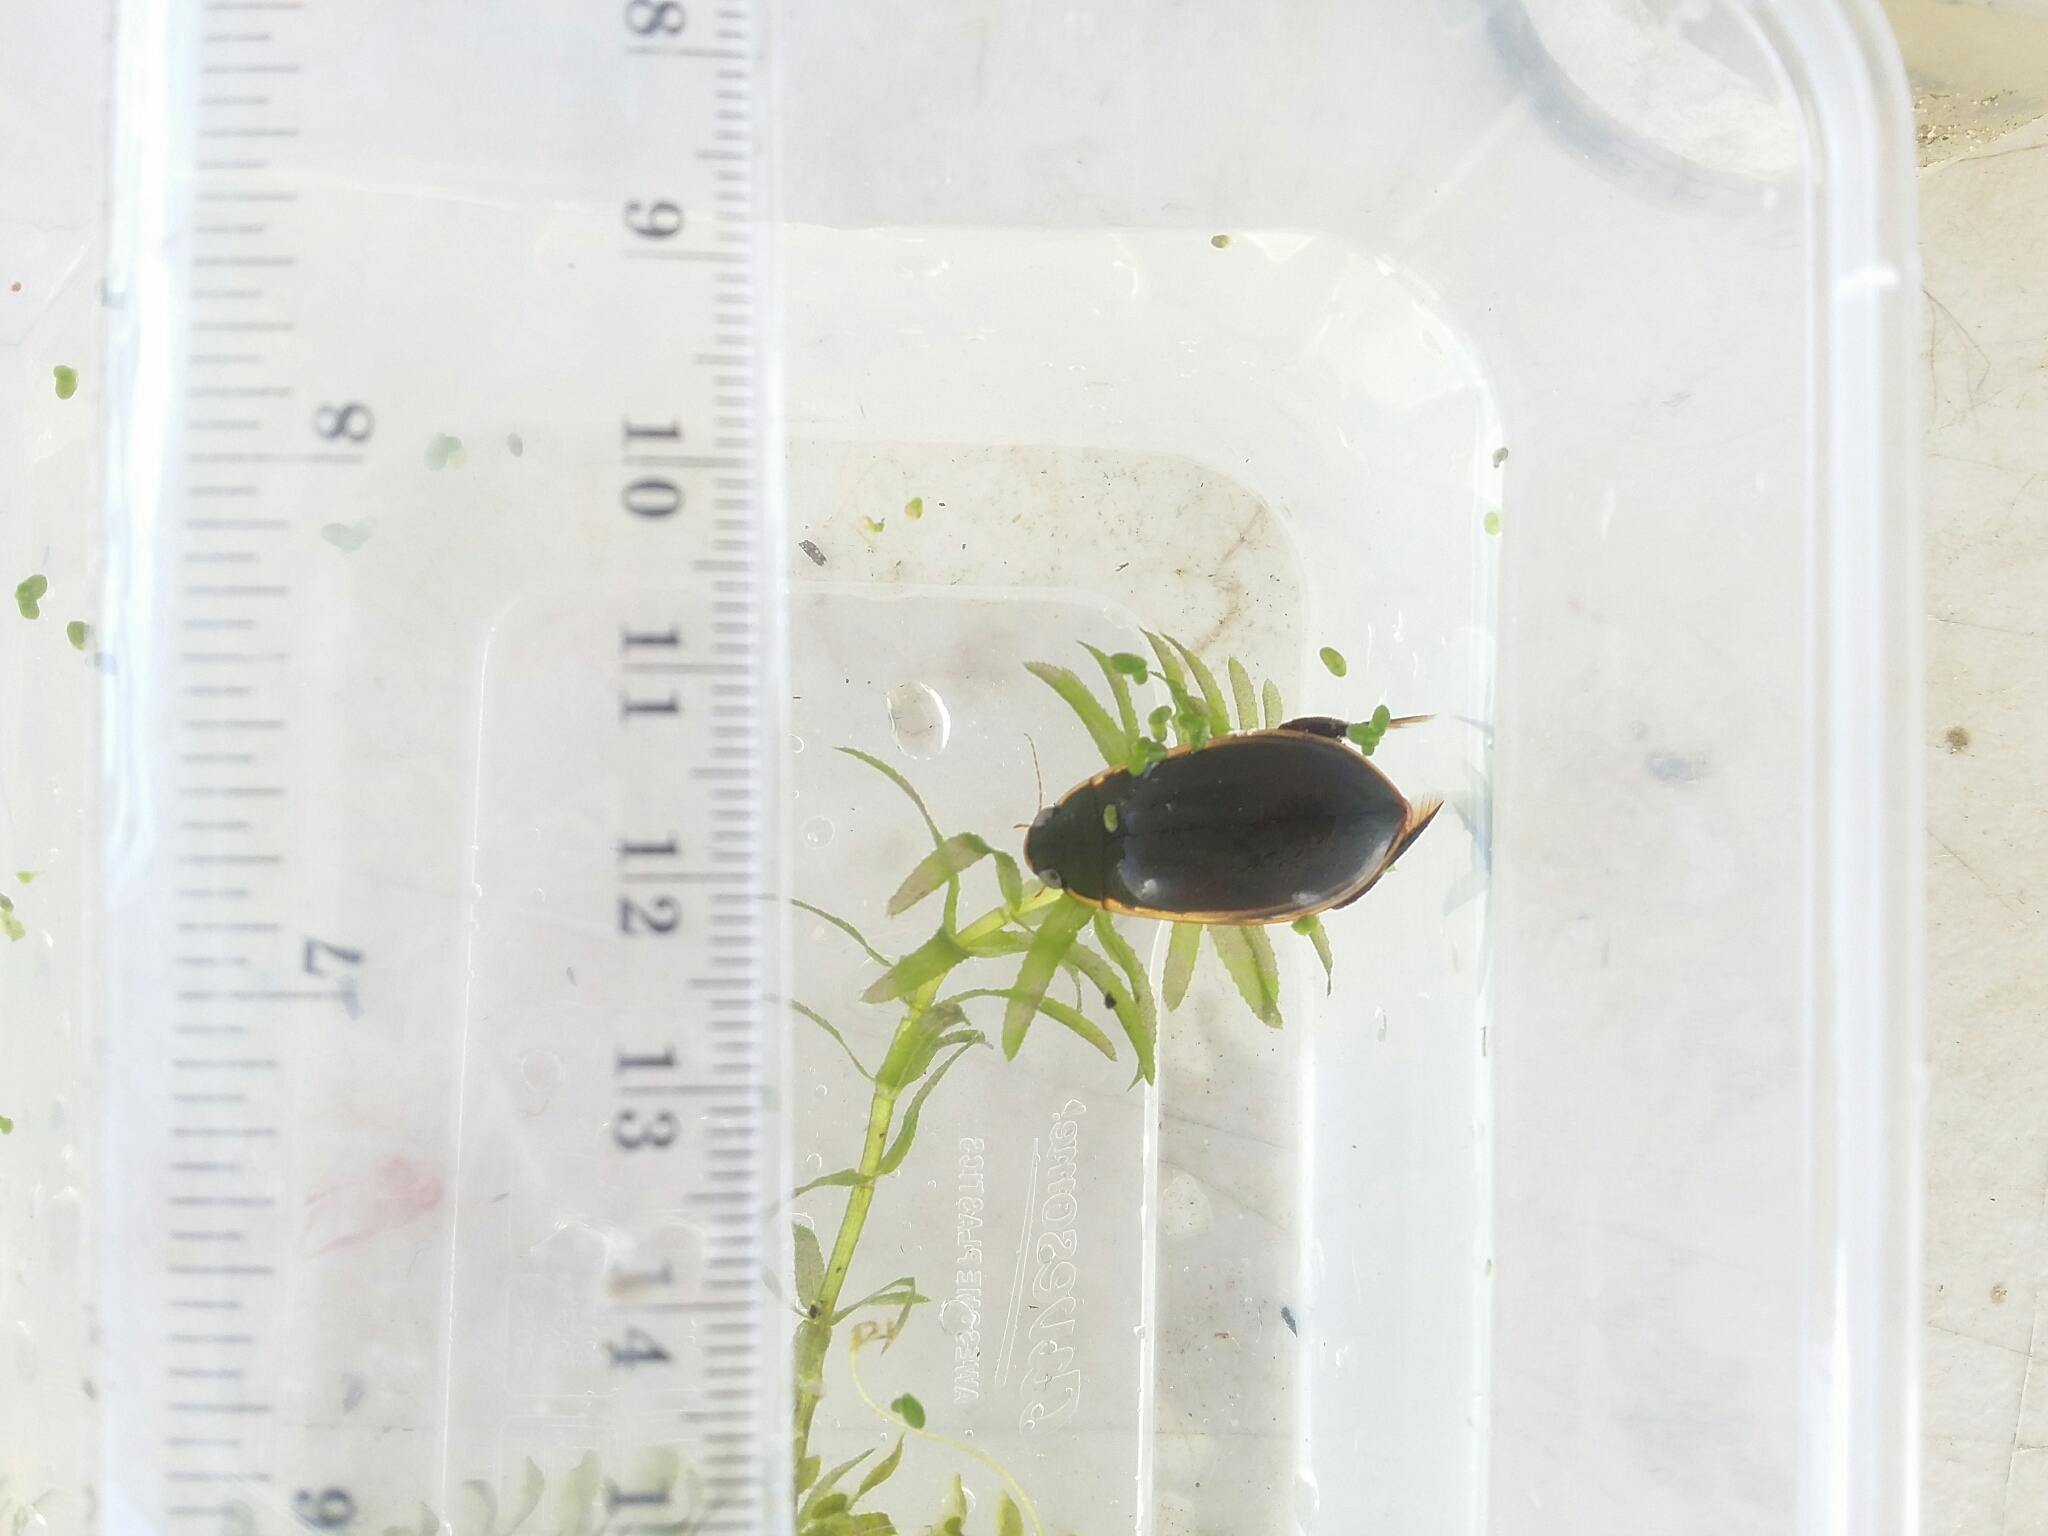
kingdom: Animalia
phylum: Arthropoda
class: Insecta
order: Coleoptera
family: Dytiscidae
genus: Cybister
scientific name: Cybister tripunctatus
